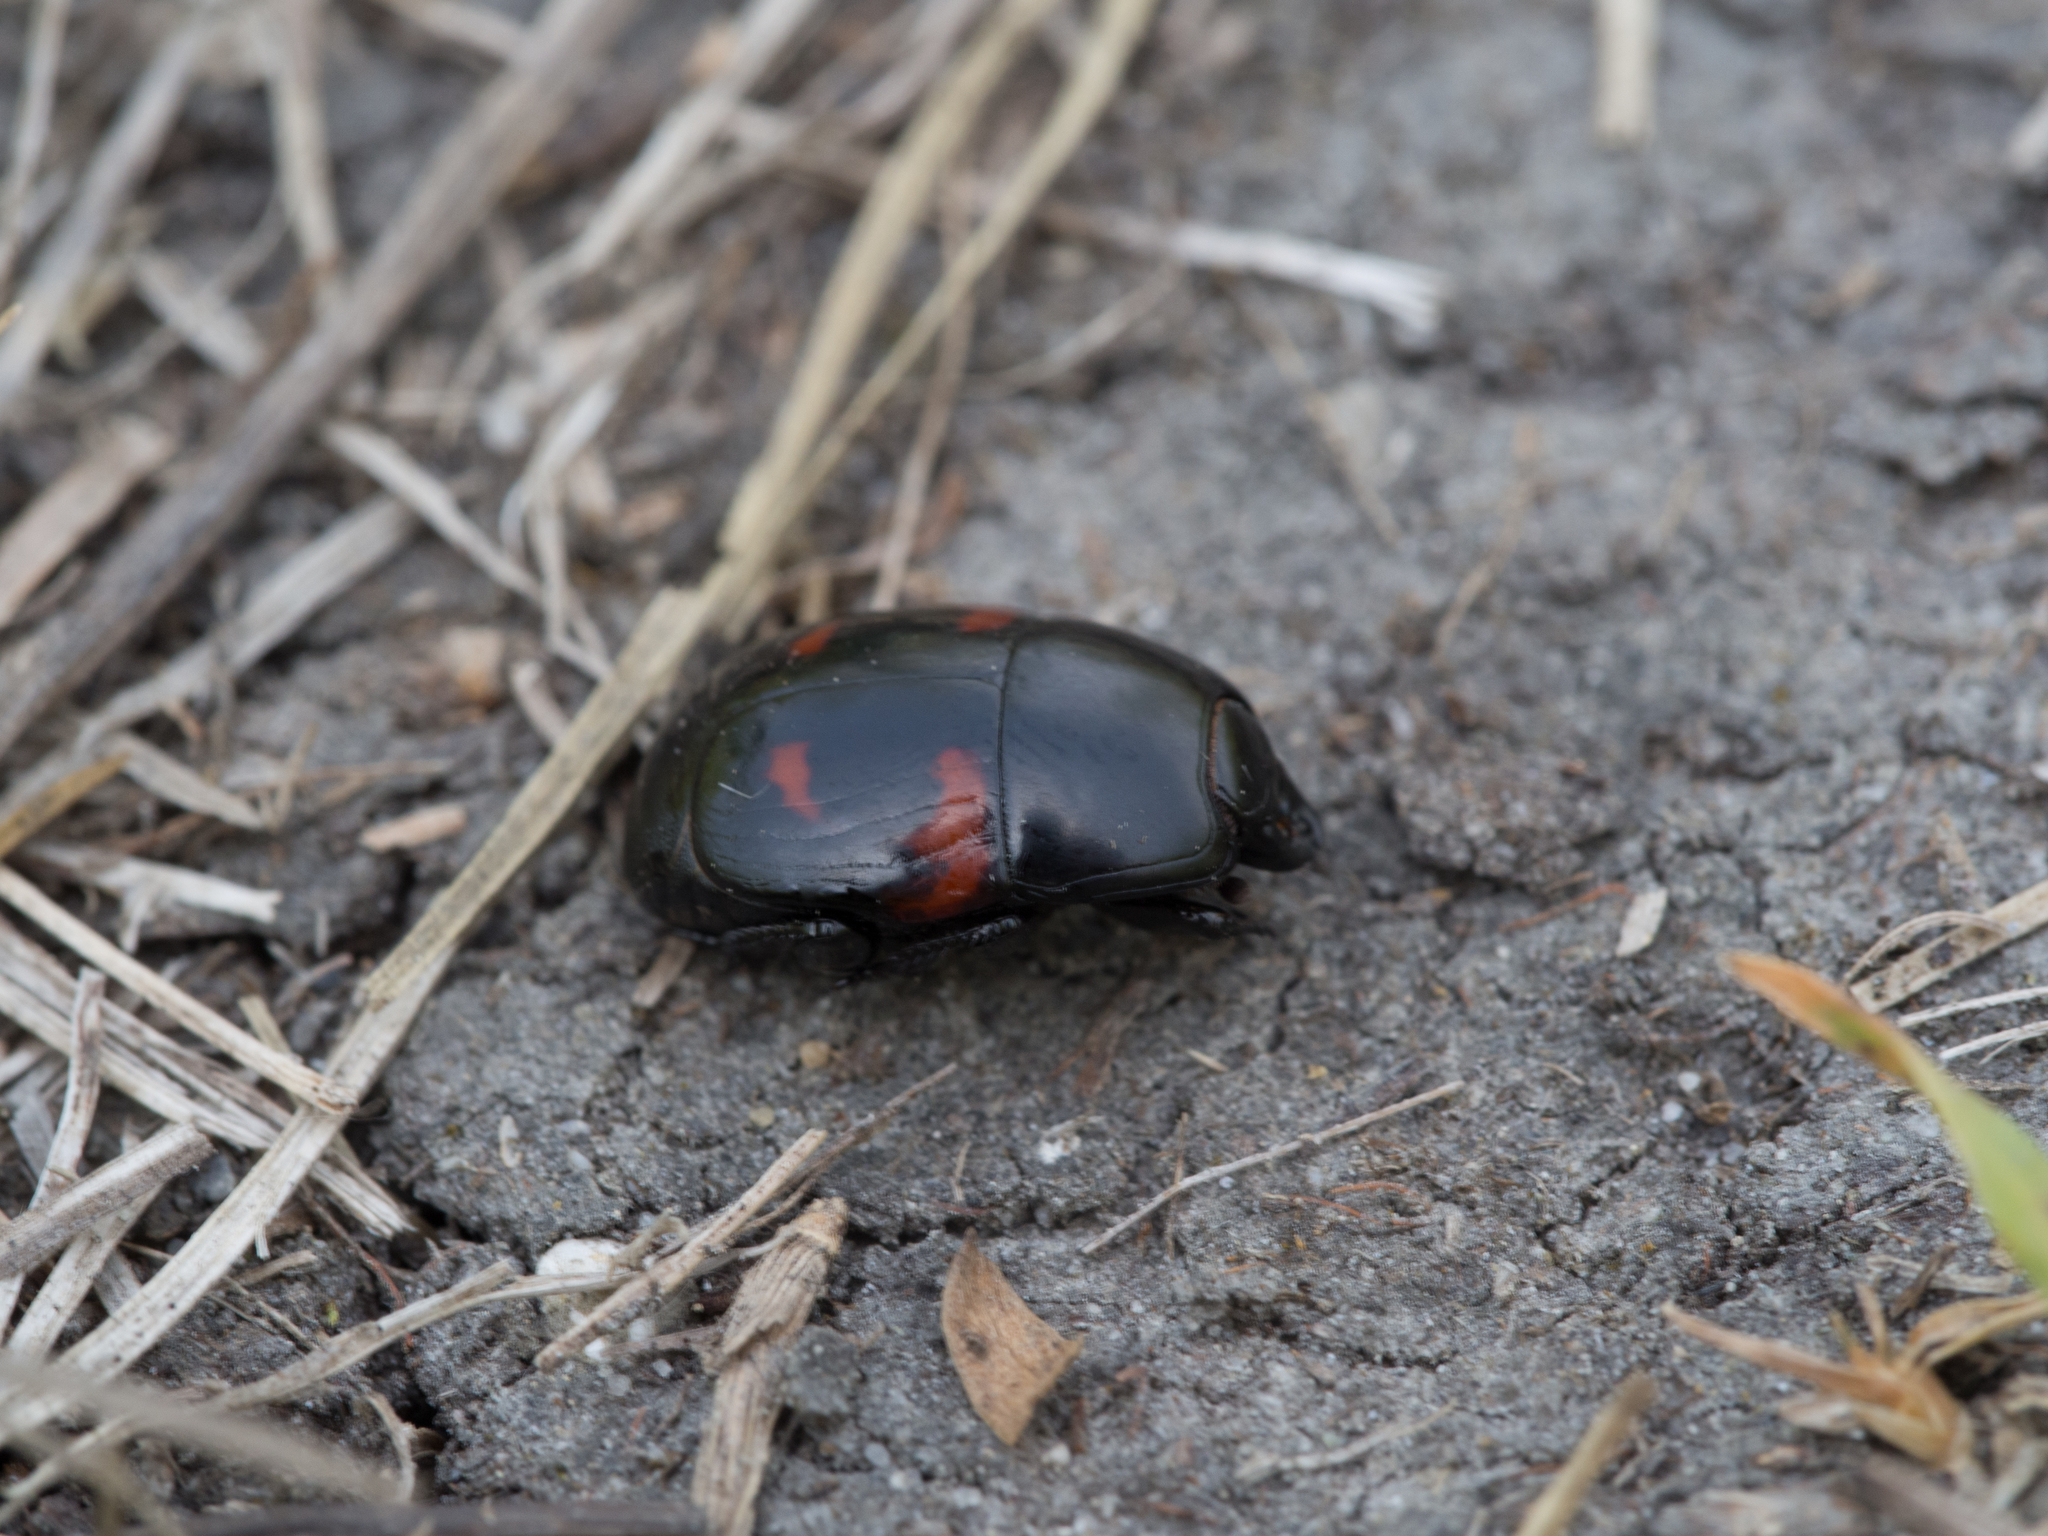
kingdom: Animalia
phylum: Arthropoda
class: Insecta
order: Coleoptera
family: Histeridae
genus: Hister
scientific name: Hister quadrimaculatus
